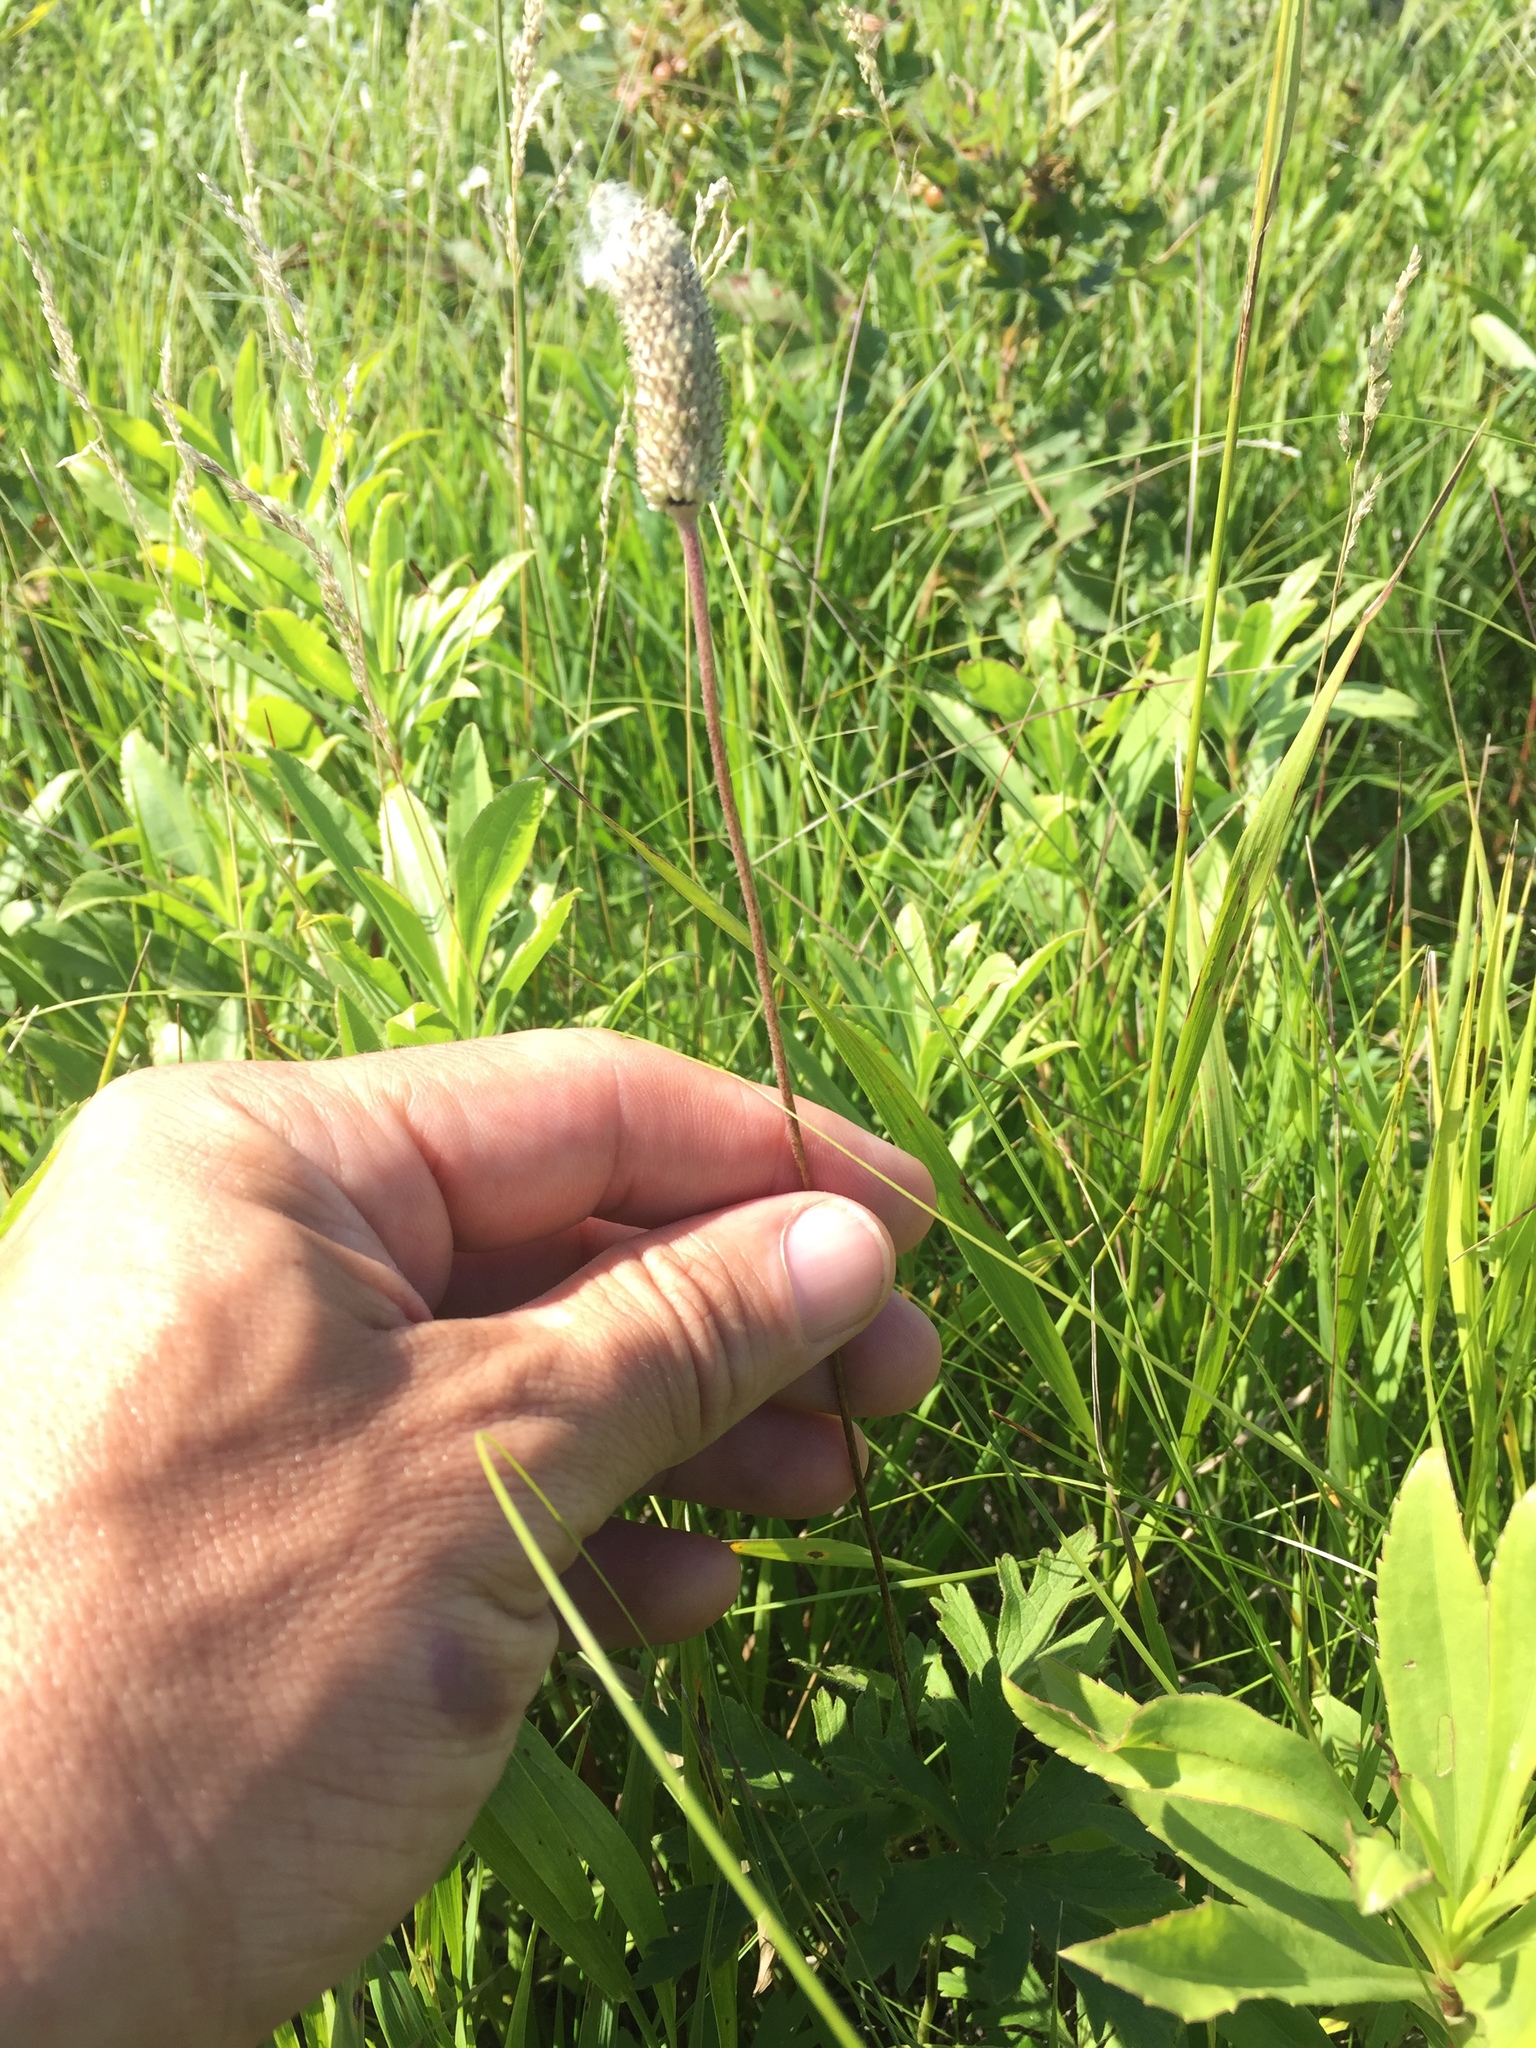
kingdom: Plantae
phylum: Tracheophyta
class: Magnoliopsida
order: Ranunculales
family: Ranunculaceae
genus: Anemone
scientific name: Anemone cylindrica
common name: Candle anemone
